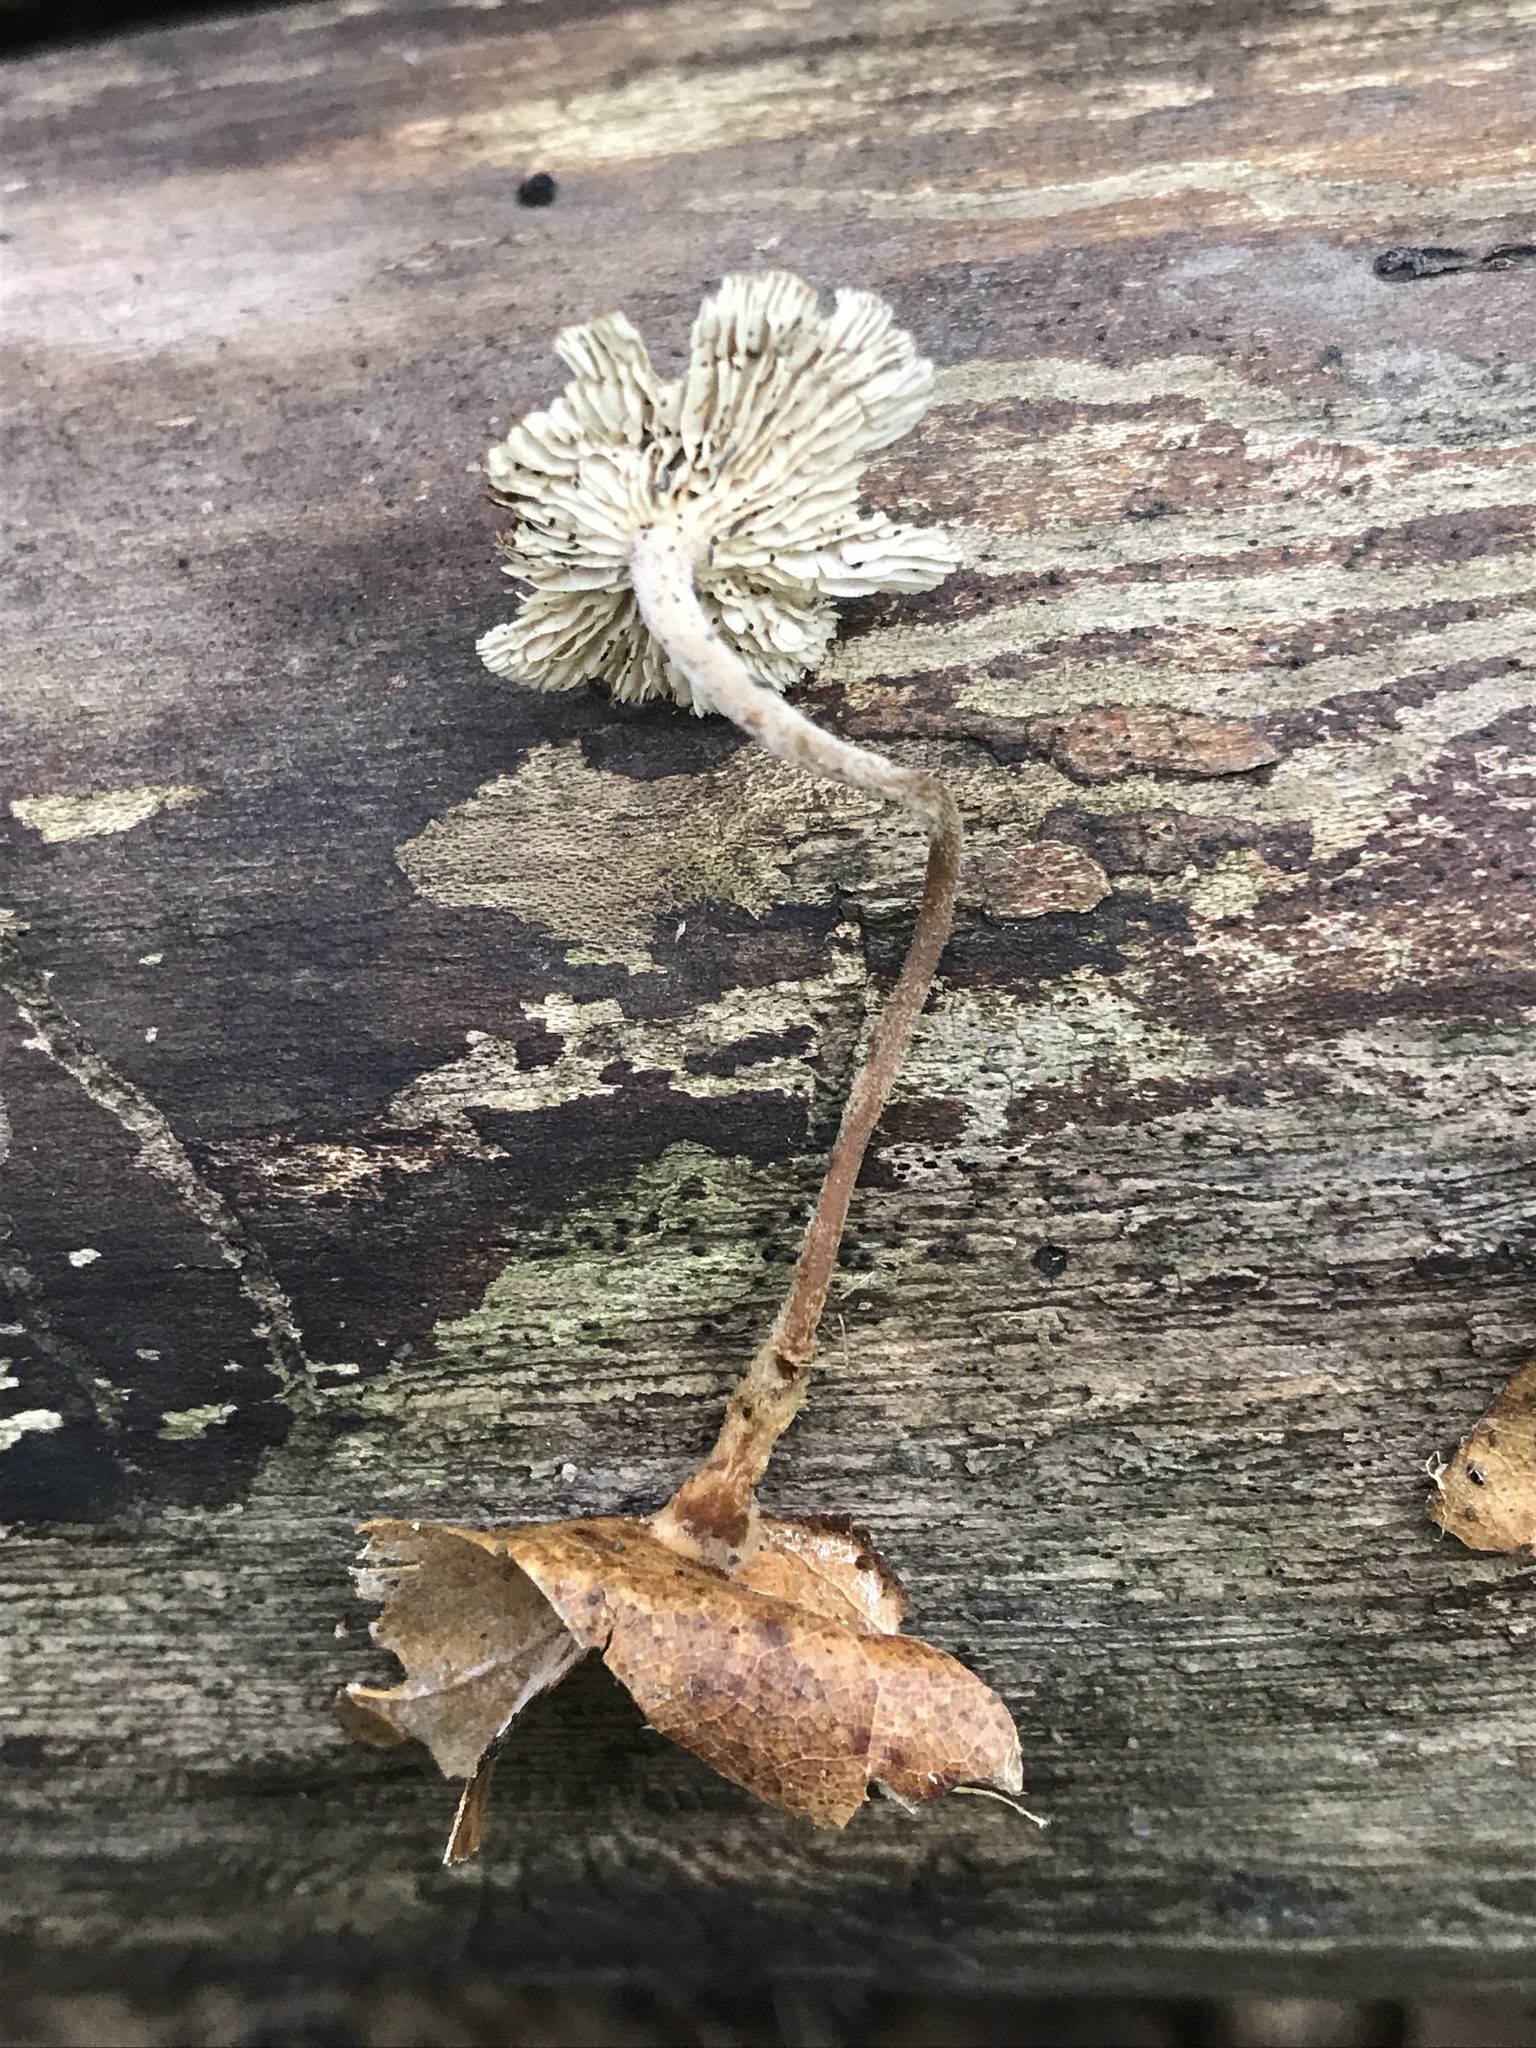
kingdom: Fungi
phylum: Basidiomycota
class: Agaricomycetes
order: Agaricales
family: Omphalotaceae
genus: Collybiopsis
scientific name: Collybiopsis biformis
